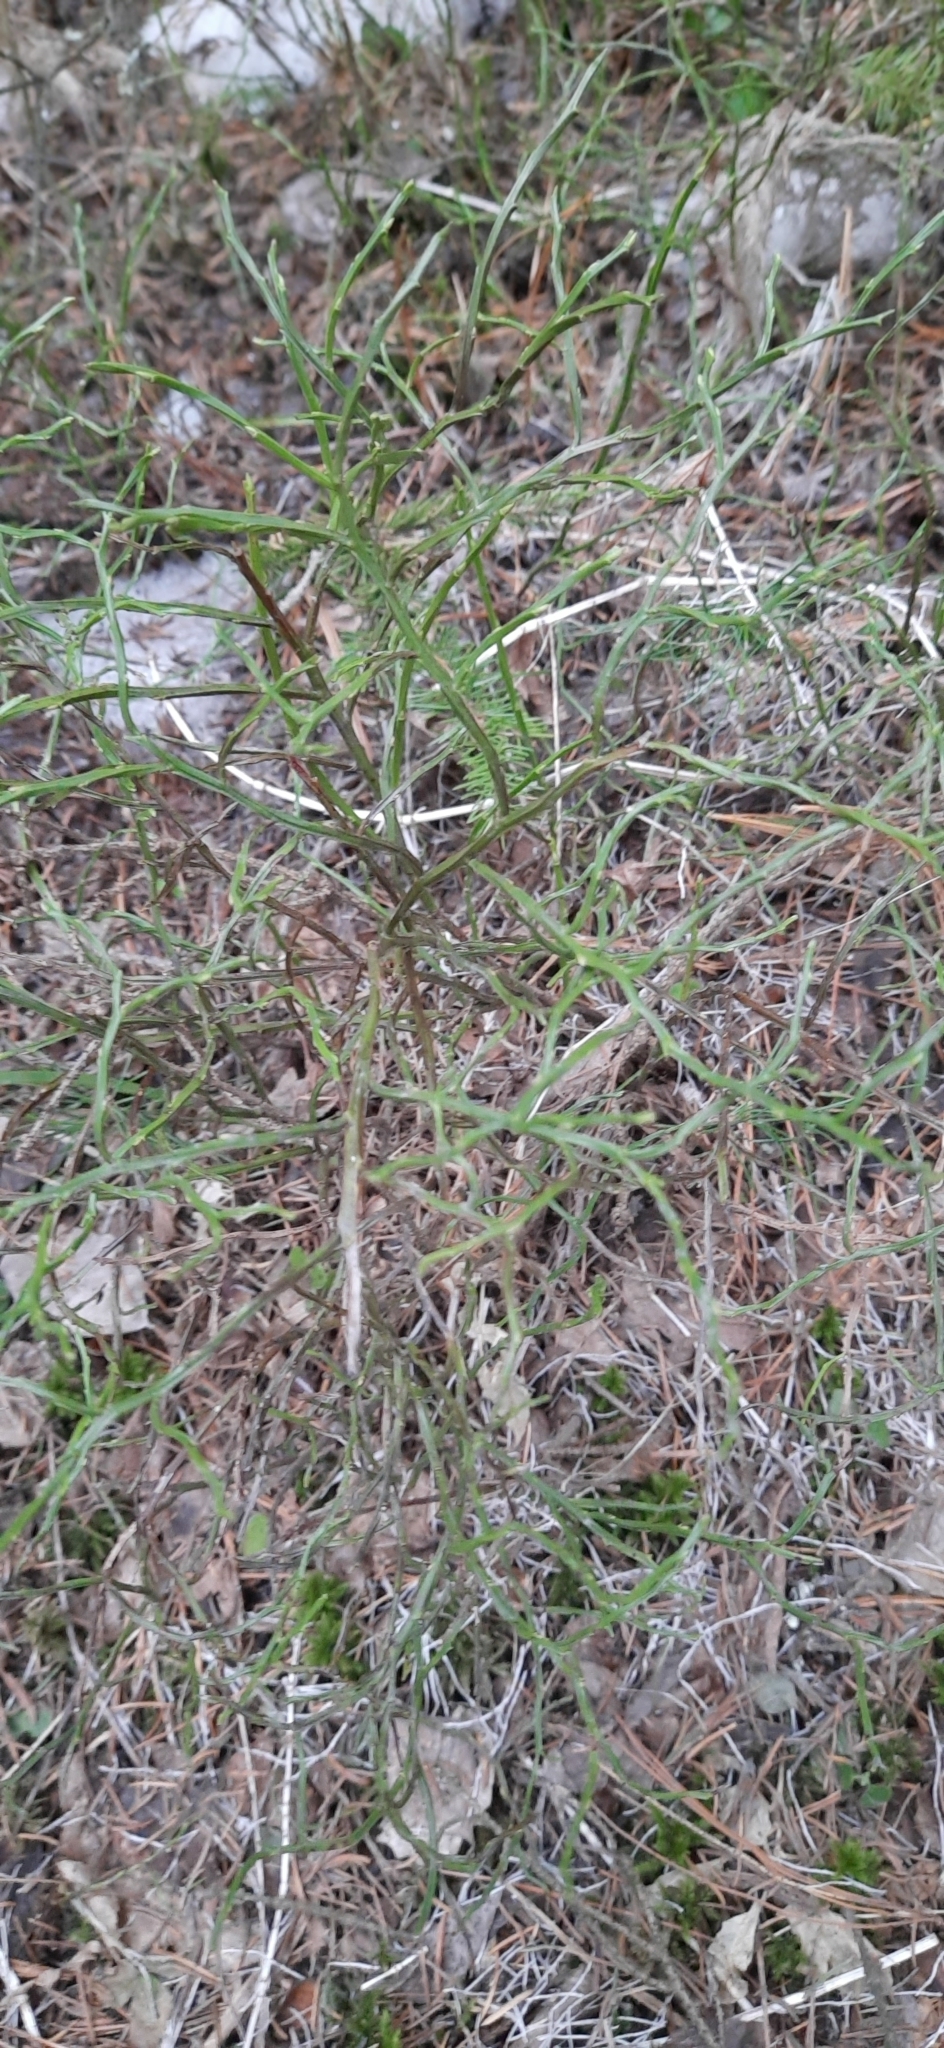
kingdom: Plantae
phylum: Tracheophyta
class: Magnoliopsida
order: Ericales
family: Ericaceae
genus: Vaccinium
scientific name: Vaccinium myrtillus
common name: Bilberry
